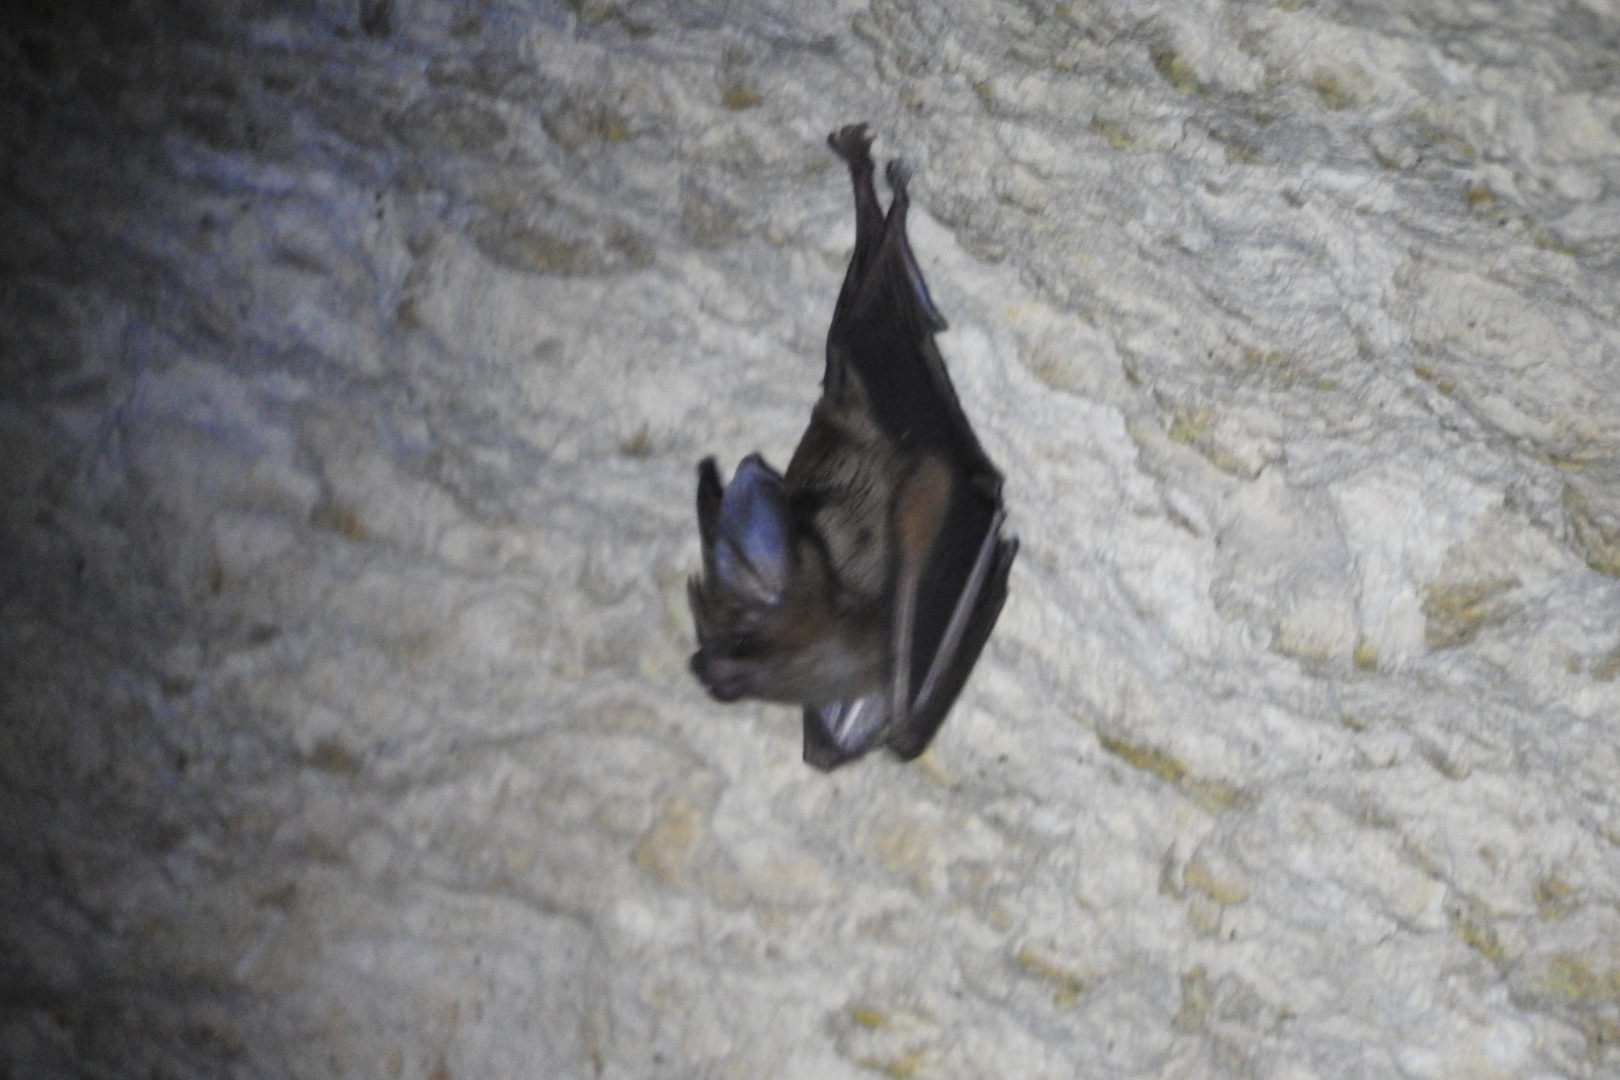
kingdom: Animalia
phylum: Chordata
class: Mammalia
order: Chiroptera
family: Phyllostomidae
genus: Mimon
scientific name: Mimon cozumelae
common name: Cozumelan golden bat
